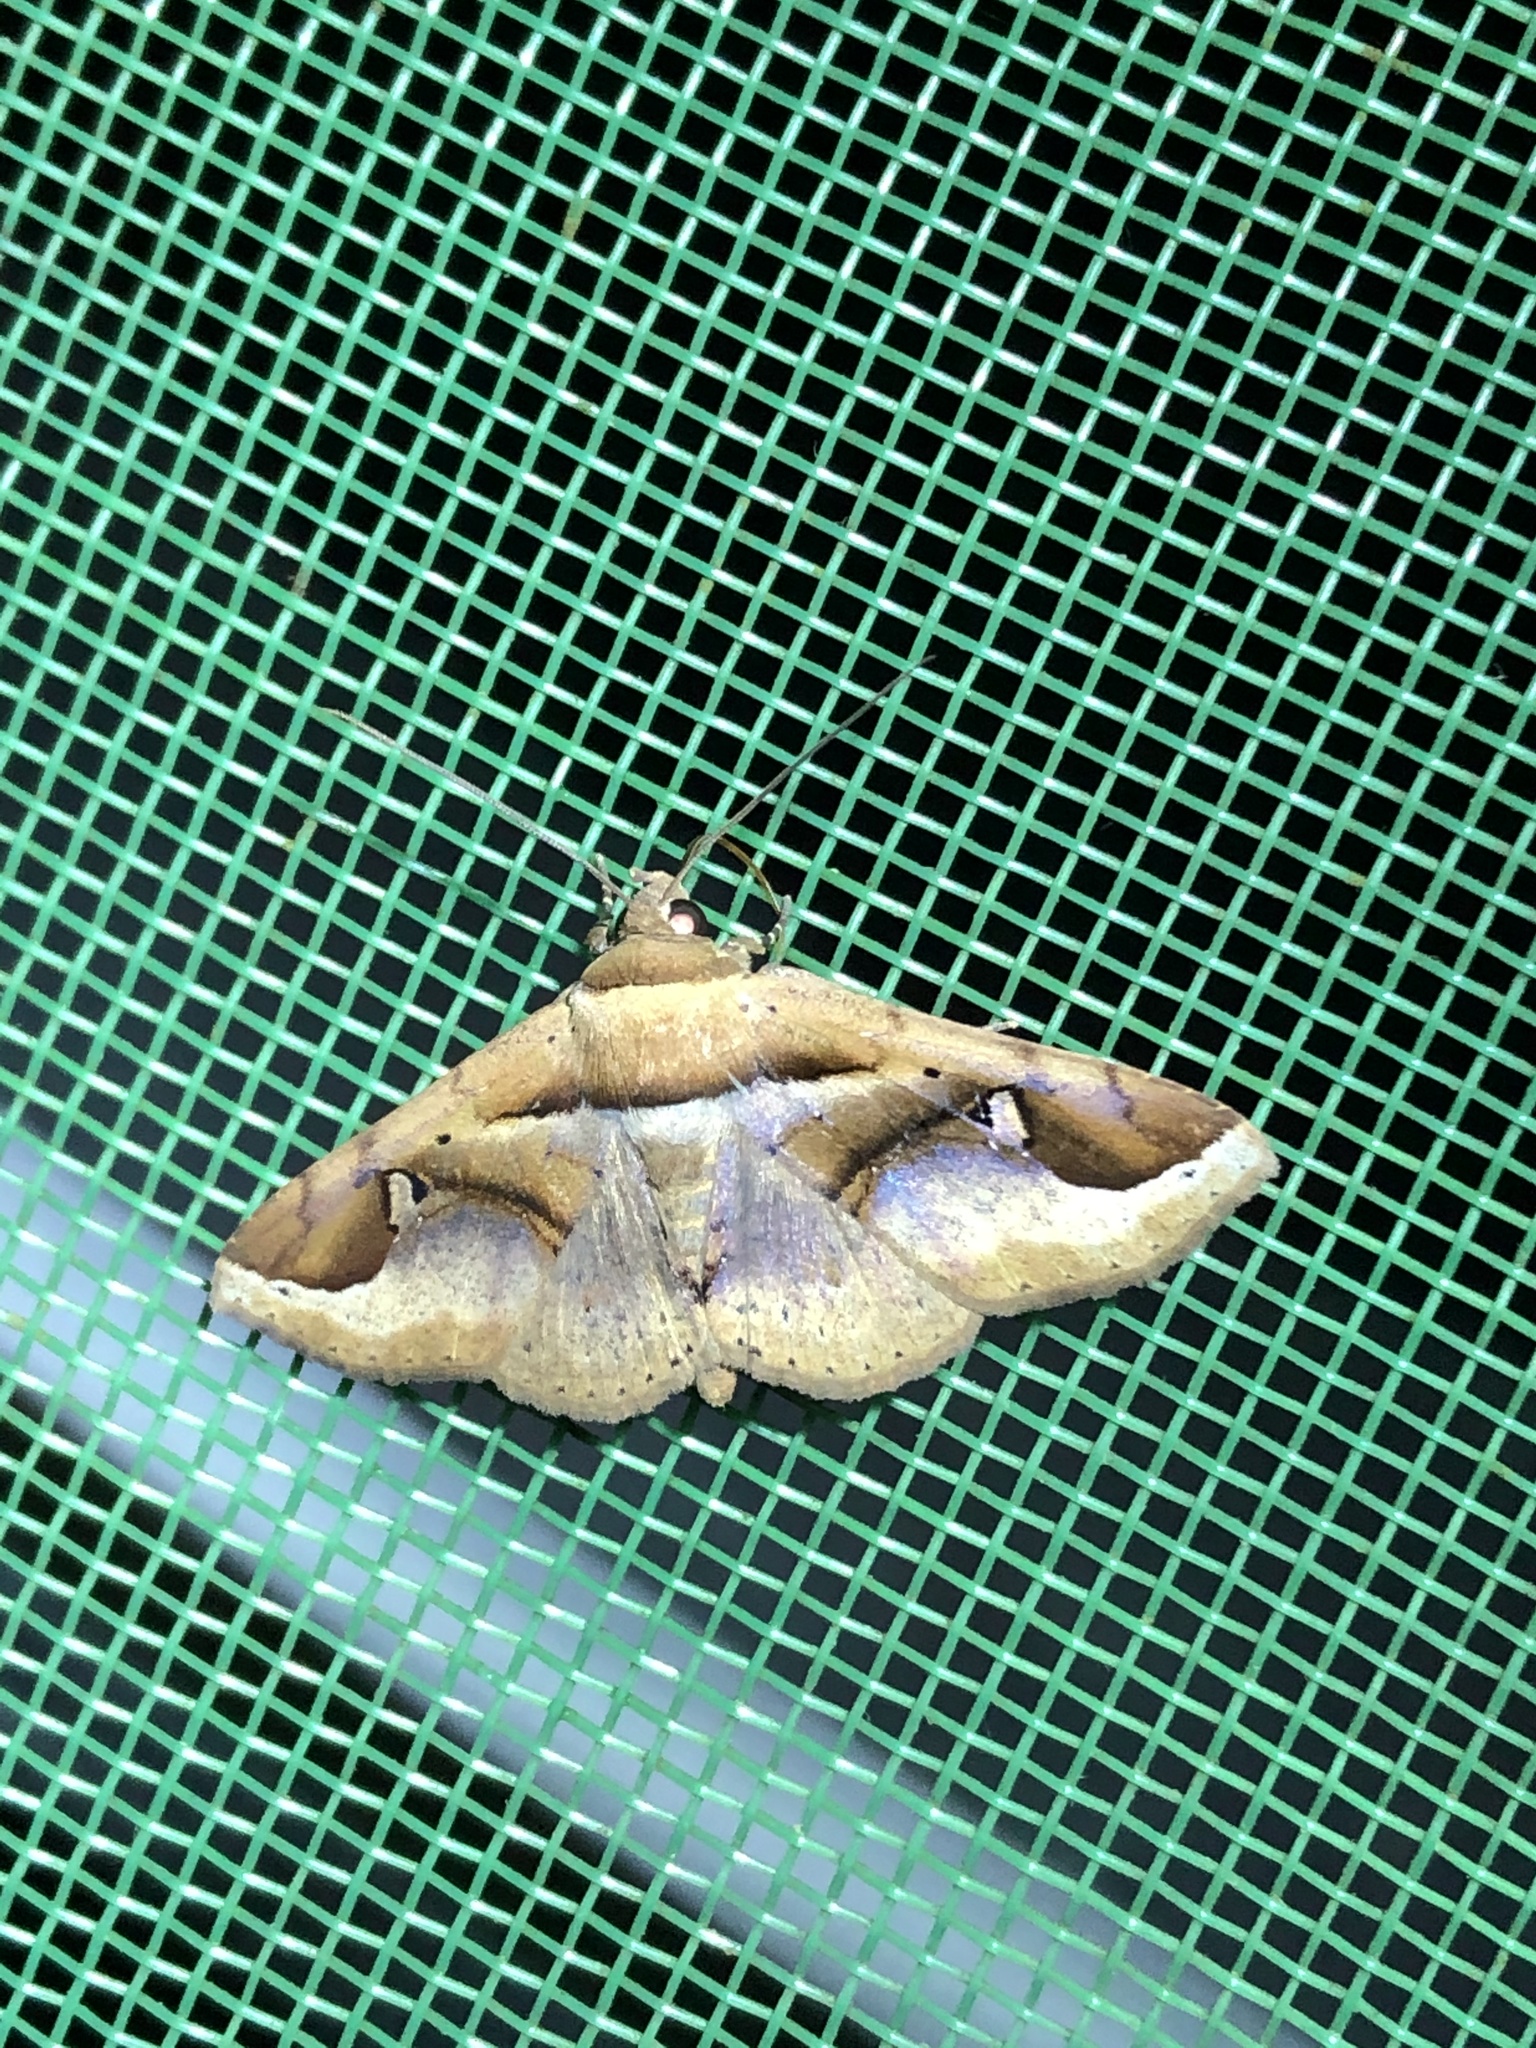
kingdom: Animalia
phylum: Arthropoda
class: Insecta
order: Lepidoptera
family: Erebidae
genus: Massala
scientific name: Massala quassa
